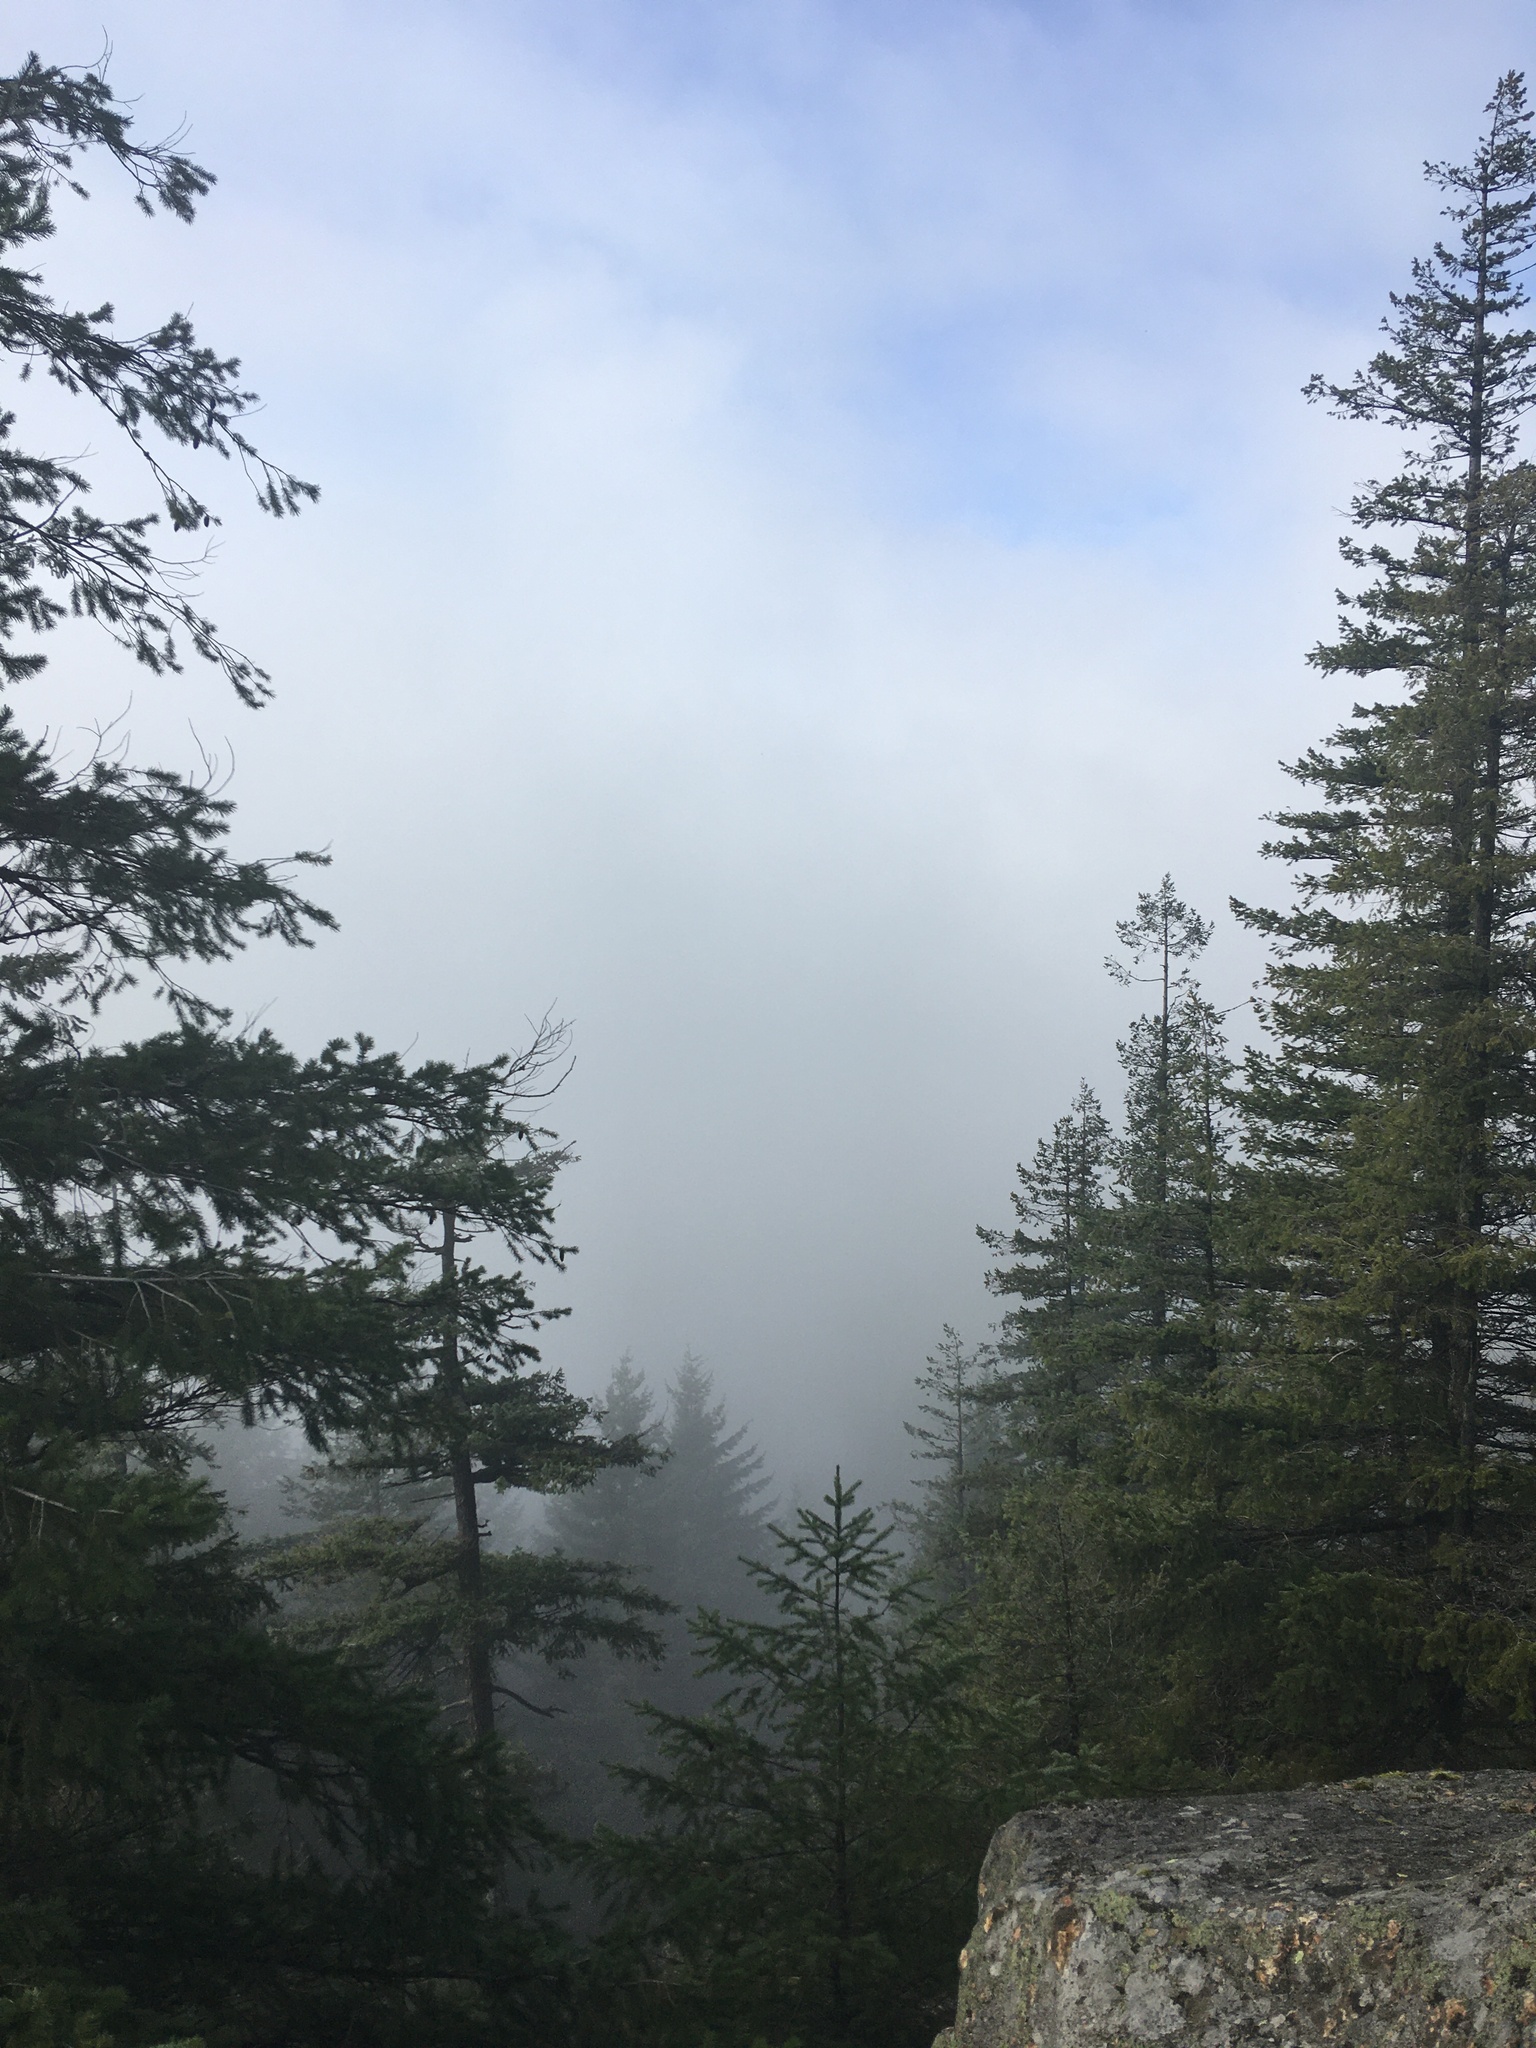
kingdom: Plantae
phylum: Tracheophyta
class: Pinopsida
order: Pinales
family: Pinaceae
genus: Pseudotsuga
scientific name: Pseudotsuga menziesii
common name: Douglas fir
